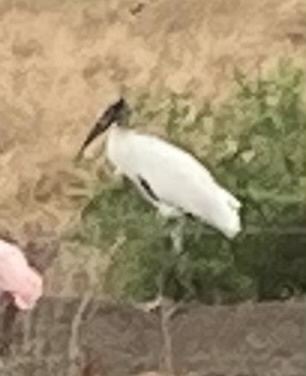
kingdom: Animalia
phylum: Chordata
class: Aves
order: Ciconiiformes
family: Ciconiidae
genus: Mycteria
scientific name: Mycteria americana
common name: Wood stork
